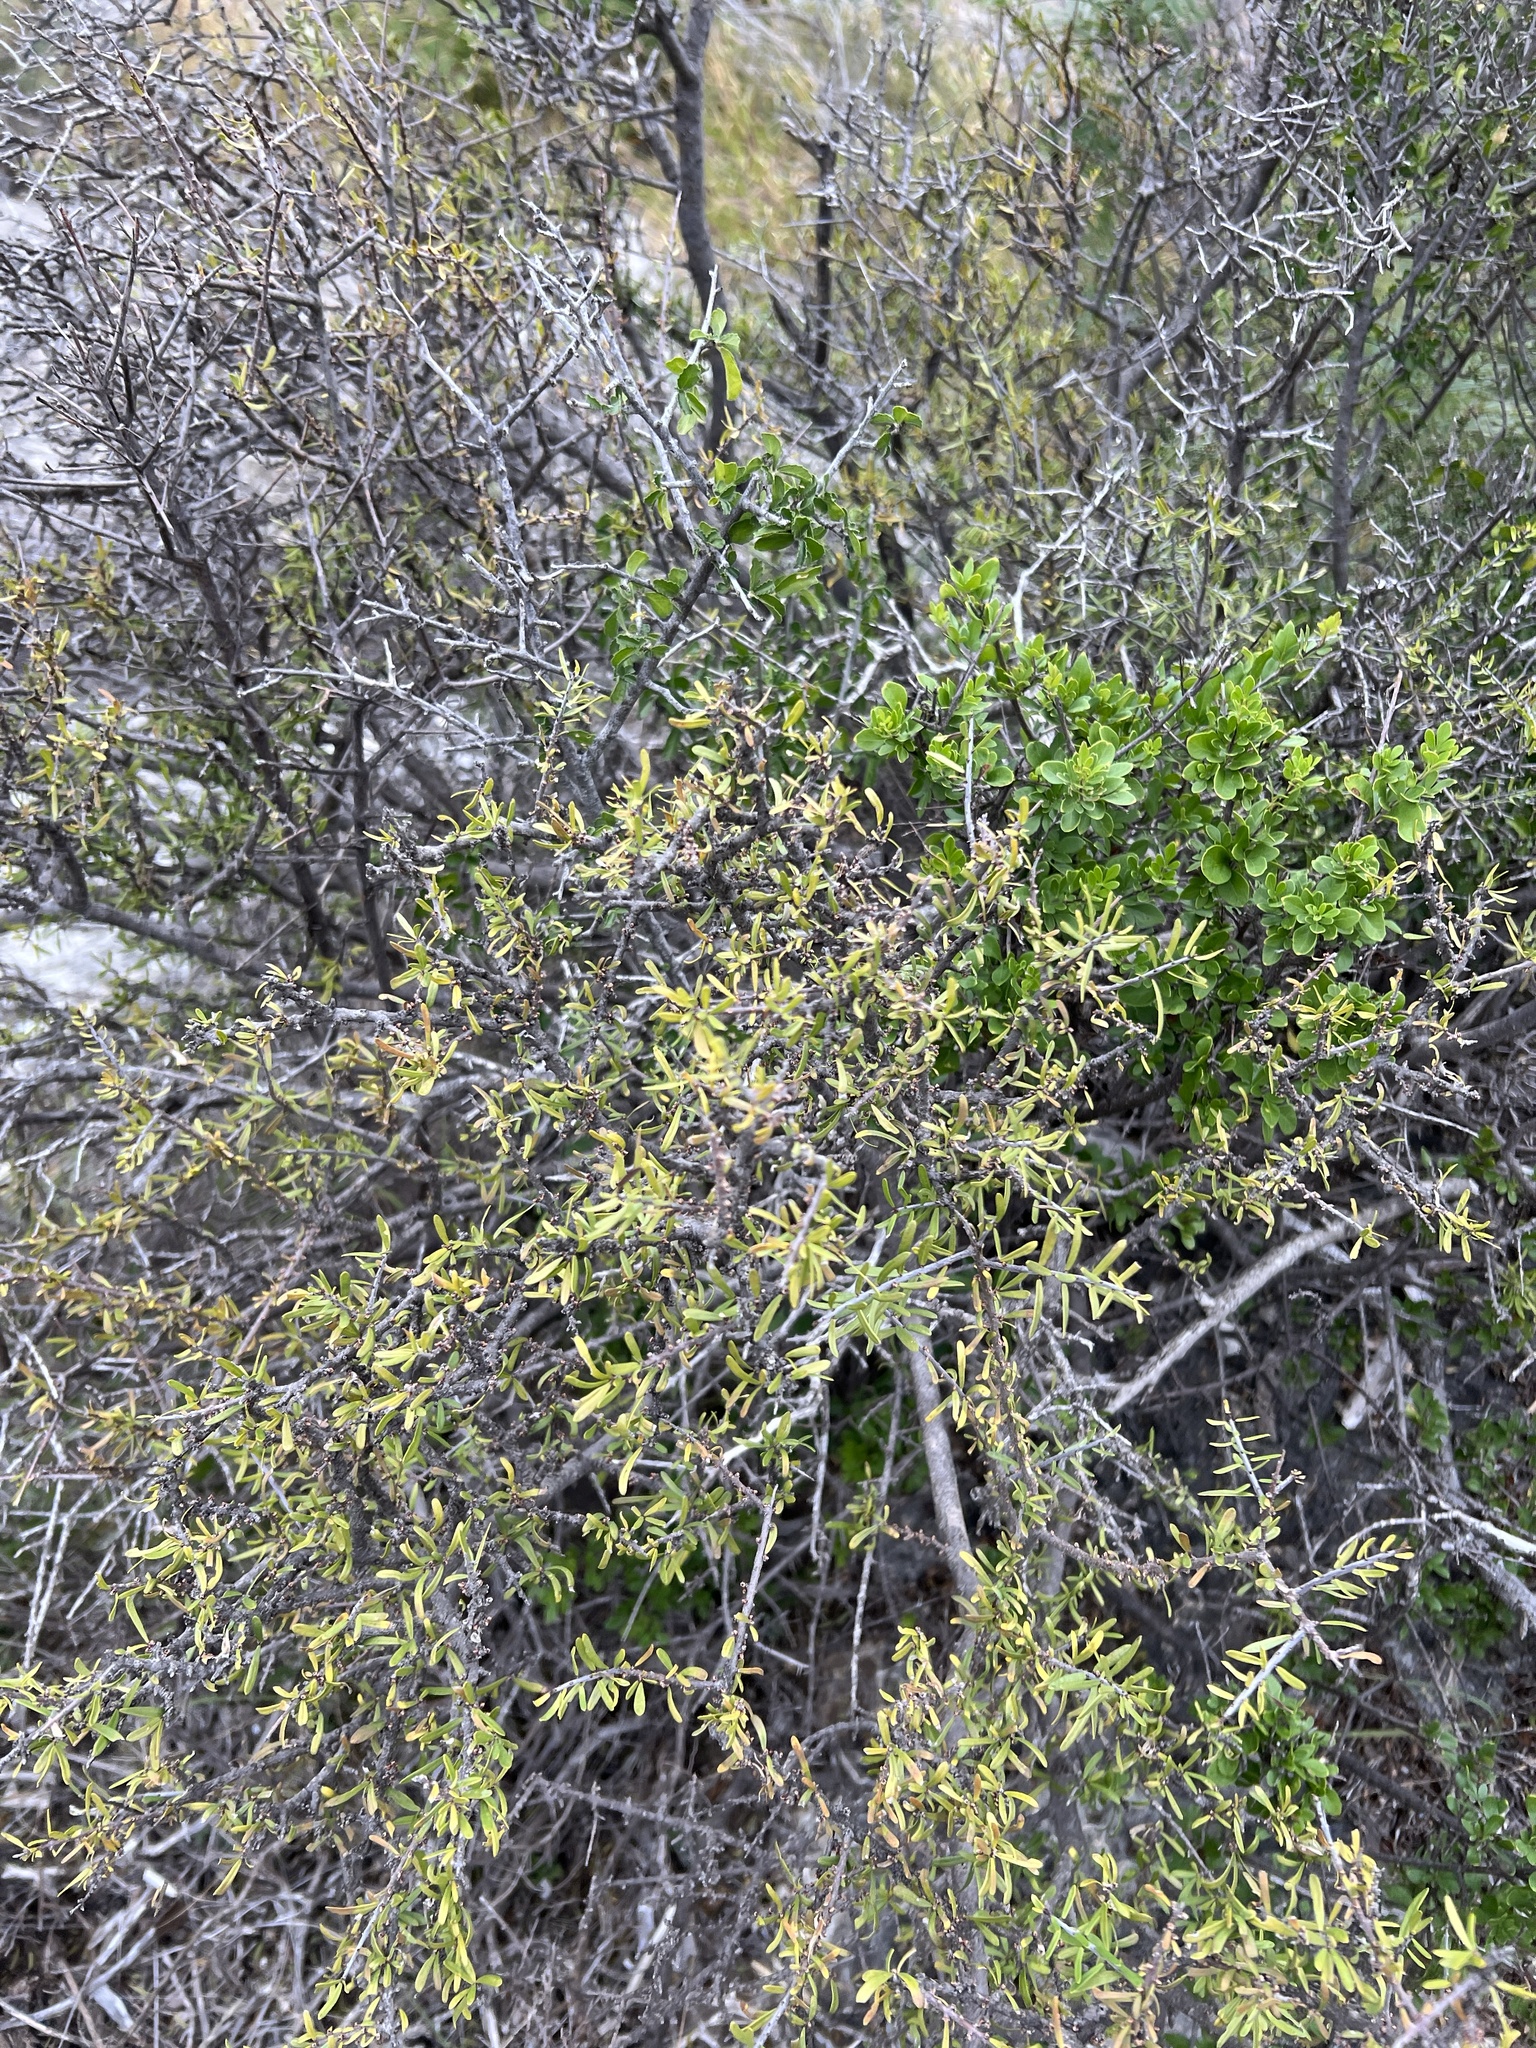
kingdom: Plantae
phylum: Tracheophyta
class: Magnoliopsida
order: Lamiales
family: Oleaceae
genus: Forestiera
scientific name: Forestiera angustifolia
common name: Elbowbush
